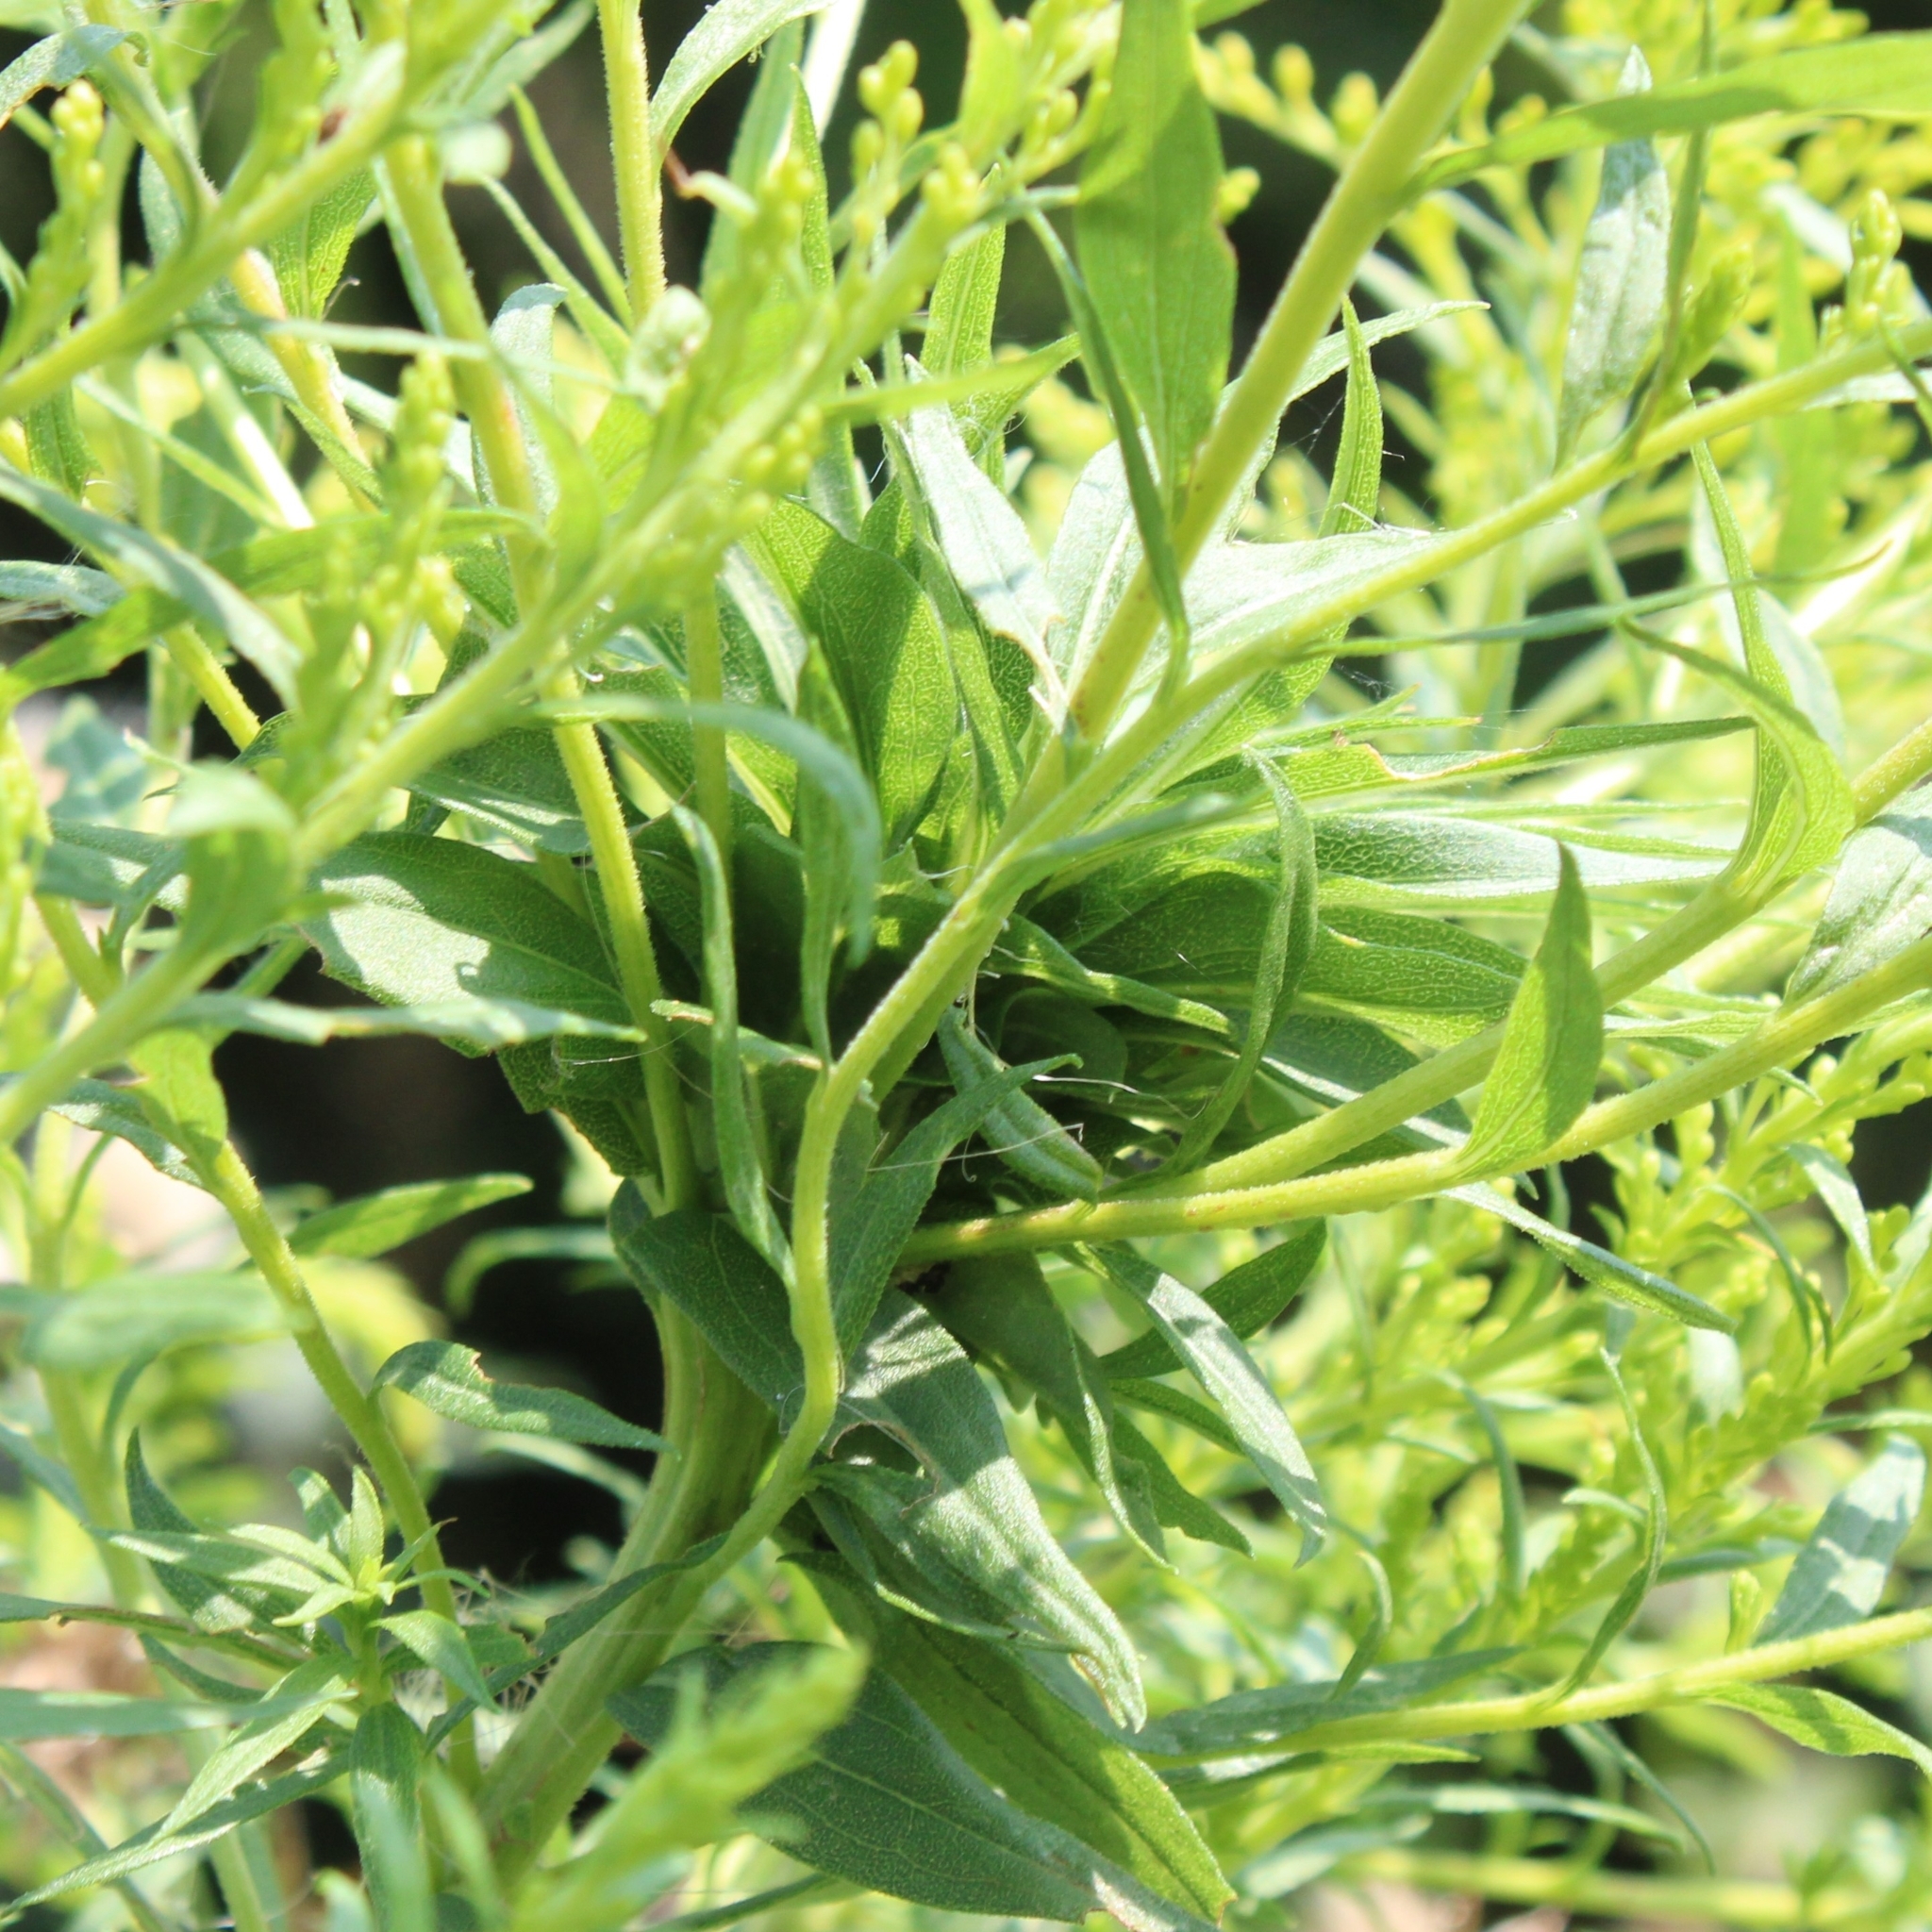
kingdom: Animalia
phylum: Arthropoda
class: Insecta
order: Diptera
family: Cecidomyiidae
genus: Rhopalomyia
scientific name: Rhopalomyia solidaginis
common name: Goldenrod bunch gall midge
